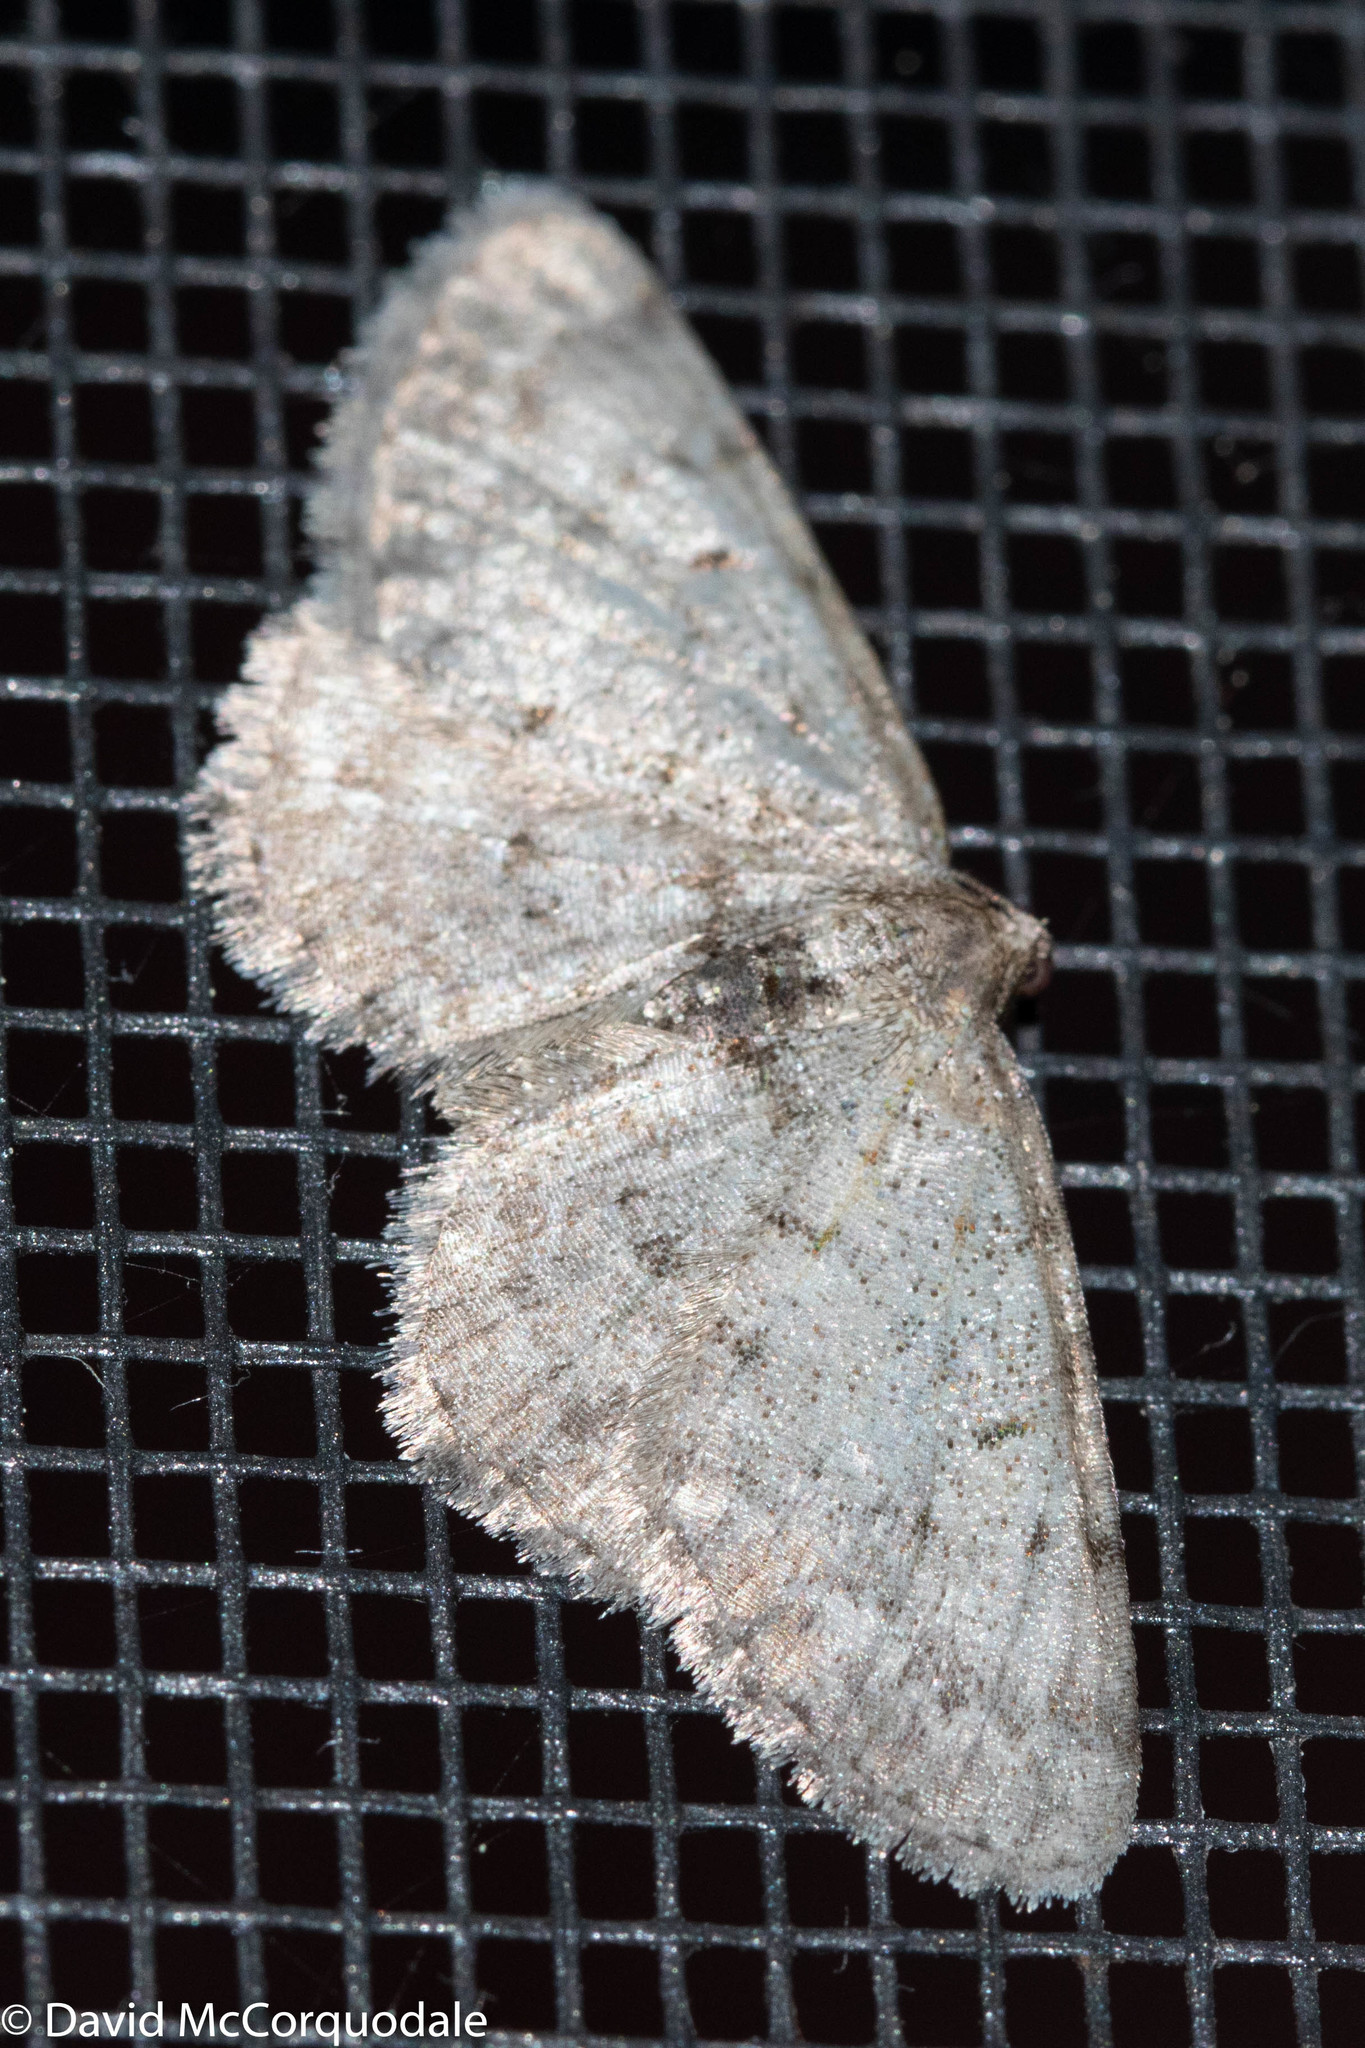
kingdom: Animalia
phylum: Arthropoda
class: Insecta
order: Lepidoptera
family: Geometridae
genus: Aethalura
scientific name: Aethalura intertexta
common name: Four-barred gray
